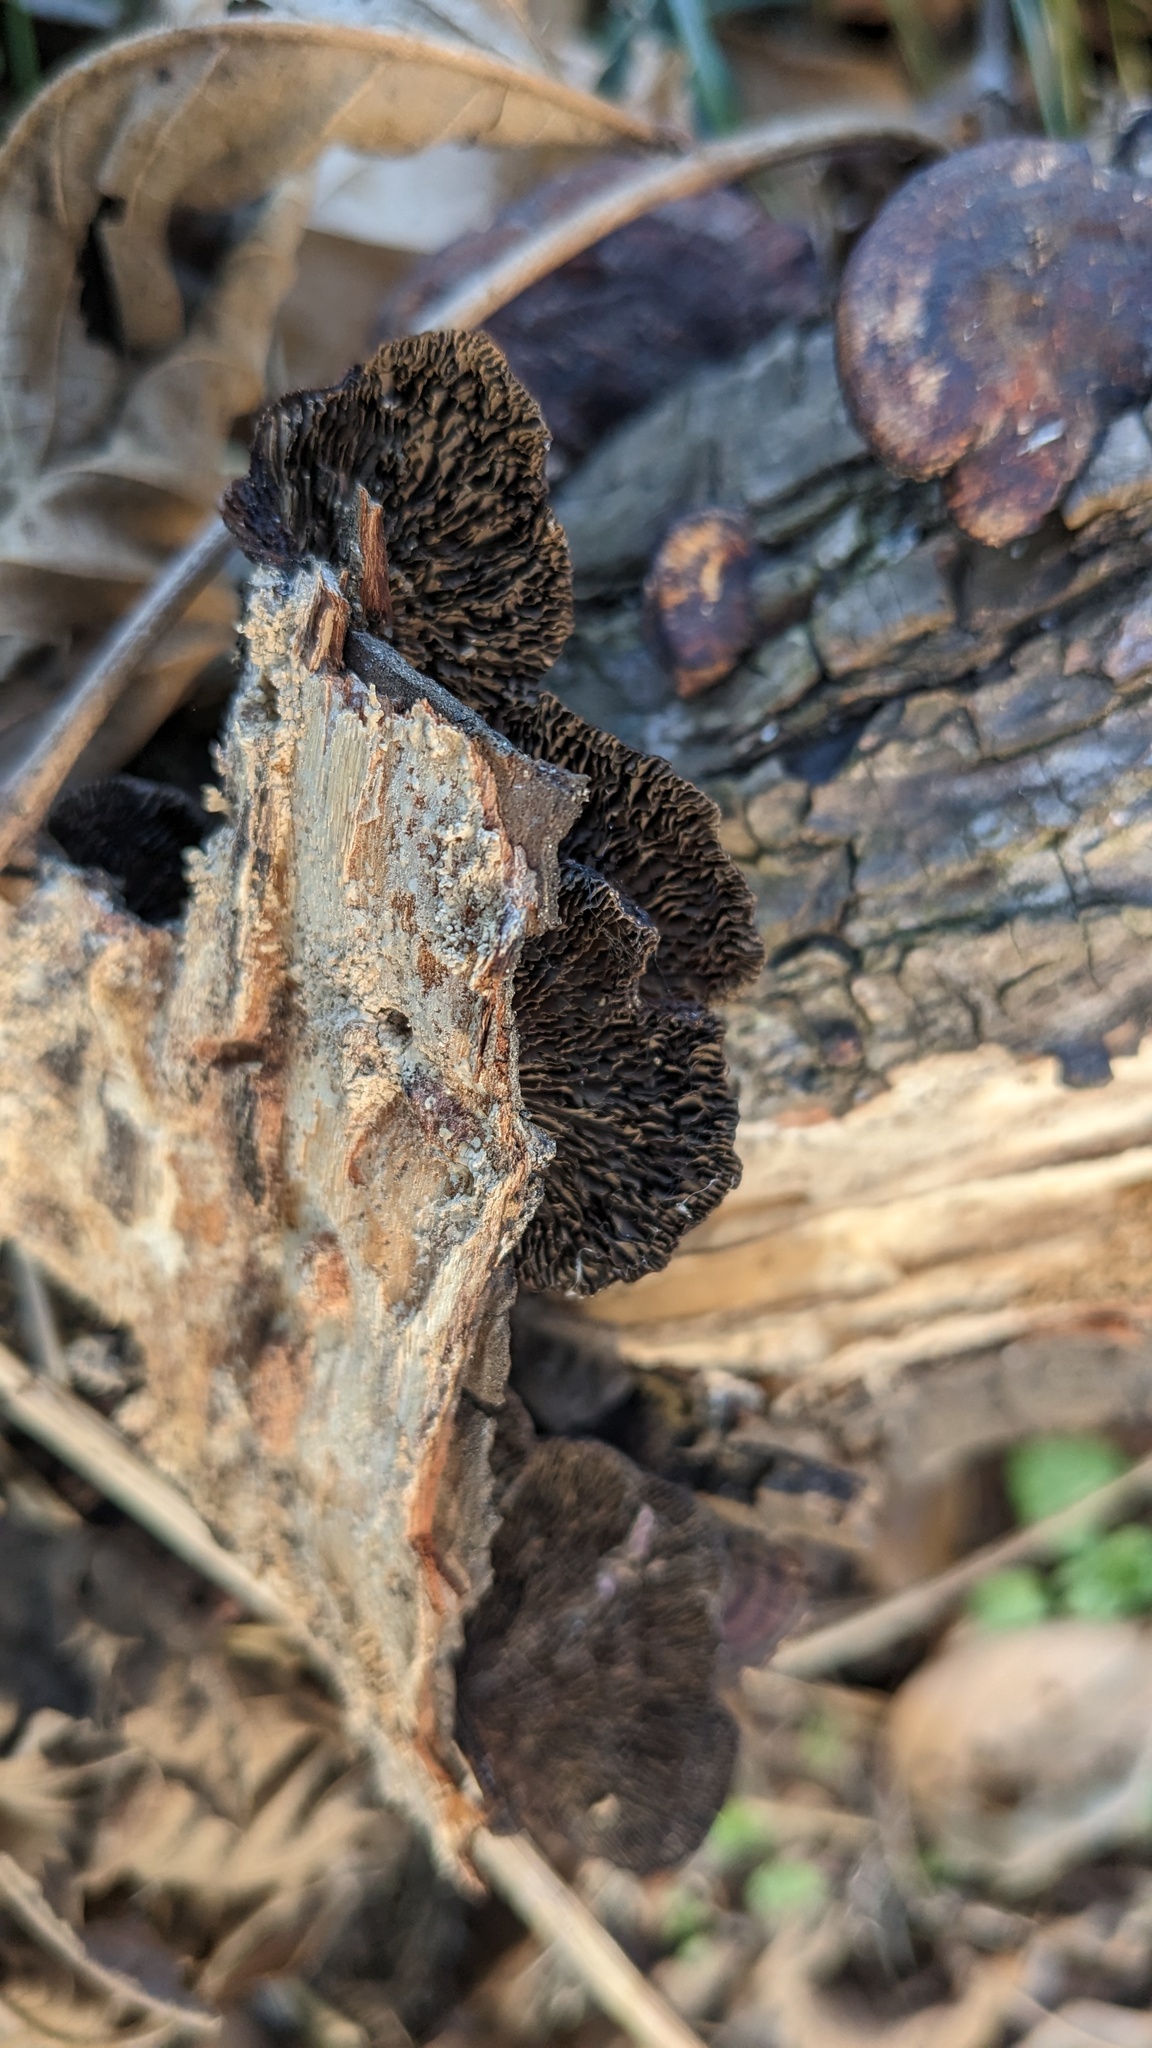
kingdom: Fungi
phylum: Basidiomycota
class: Agaricomycetes
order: Polyporales
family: Polyporaceae
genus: Daedaleopsis
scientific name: Daedaleopsis tricolor
